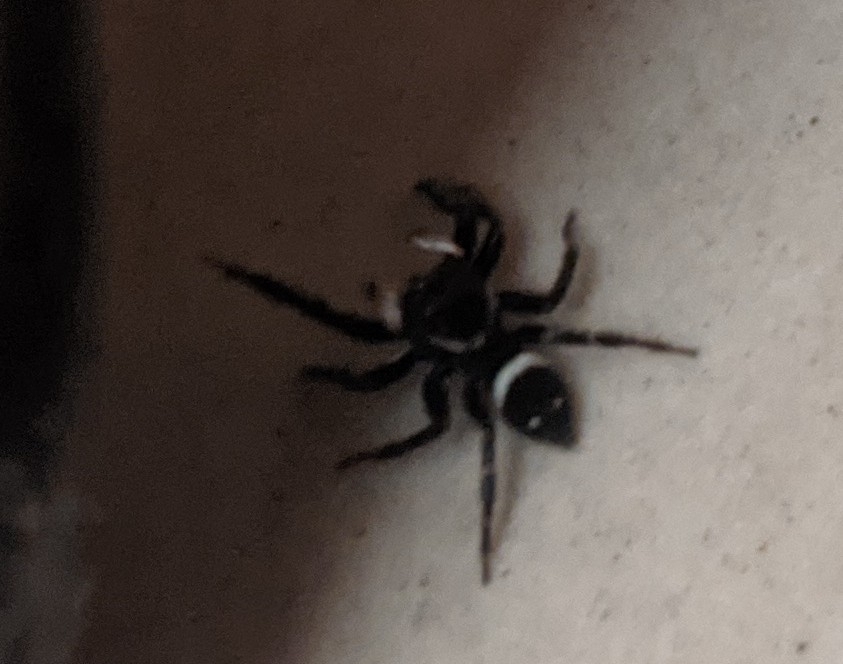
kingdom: Animalia
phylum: Arthropoda
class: Arachnida
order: Araneae
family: Salticidae
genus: Hasarius
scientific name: Hasarius adansoni
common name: Jumping spider
